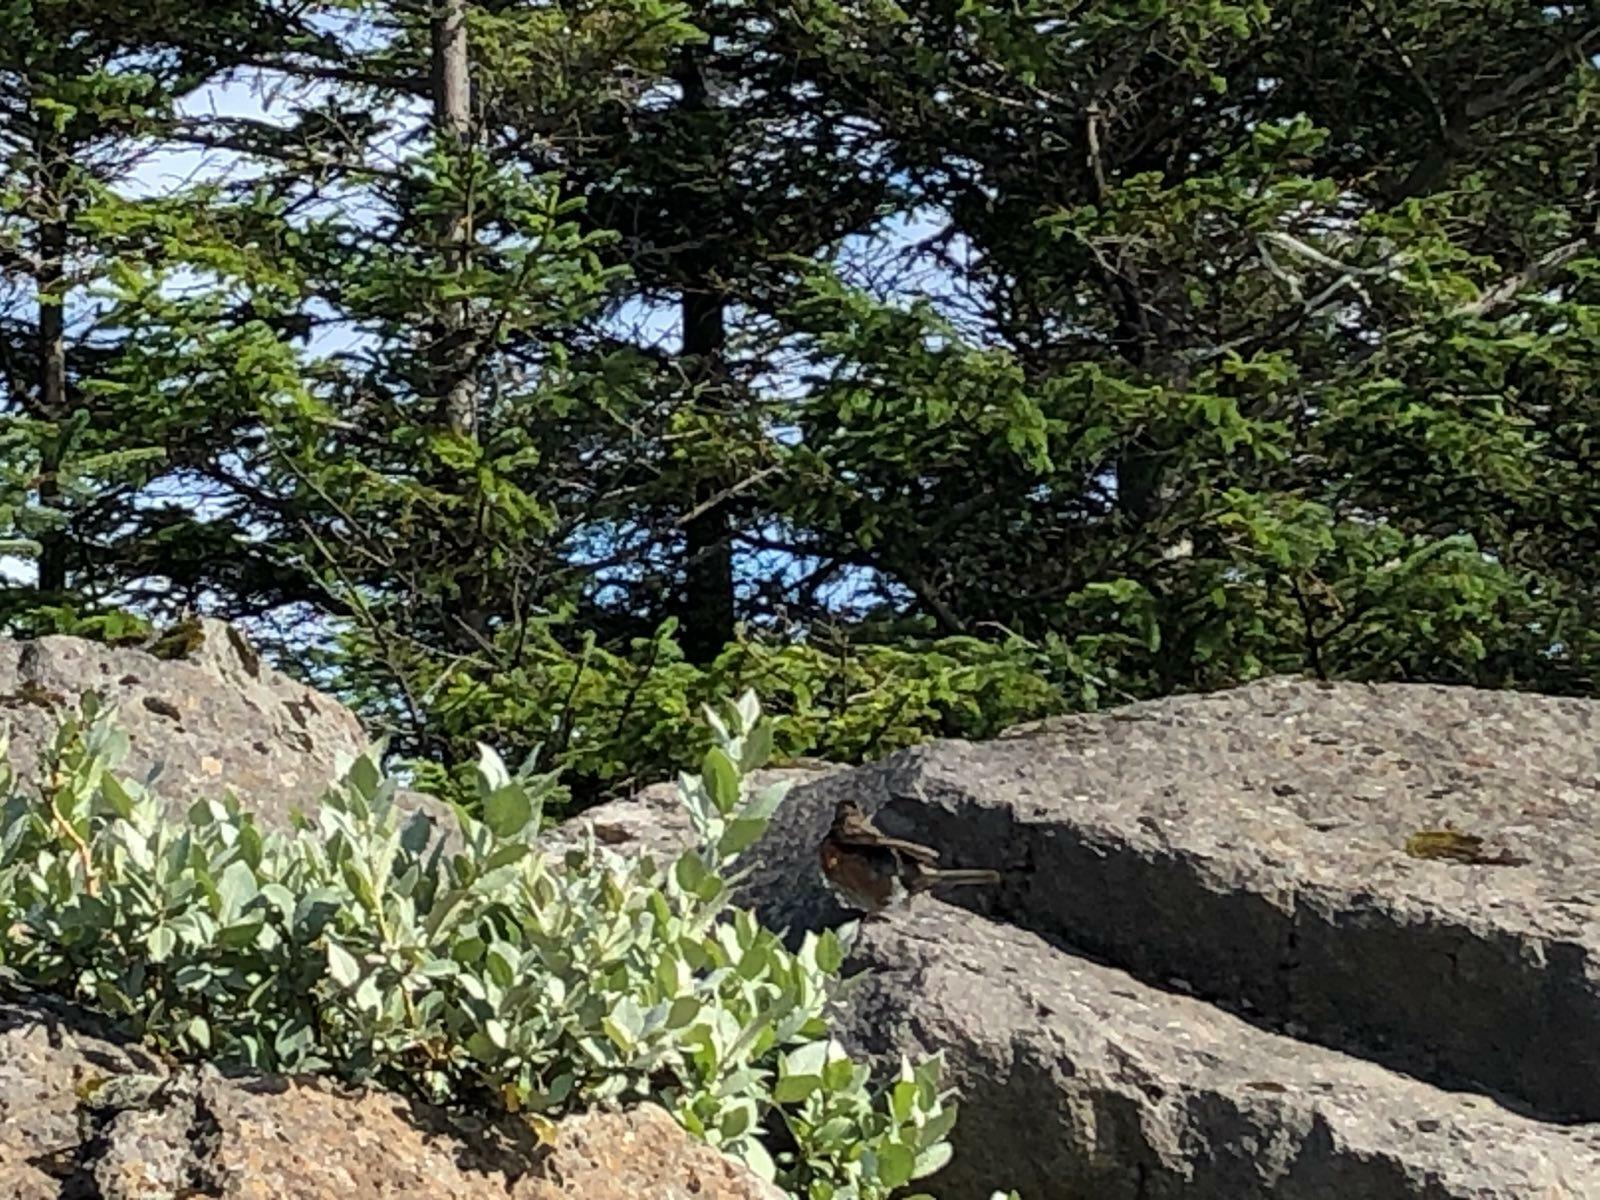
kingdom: Animalia
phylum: Chordata
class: Aves
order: Passeriformes
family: Turdidae
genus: Turdus
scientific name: Turdus iliacus
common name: Redwing
